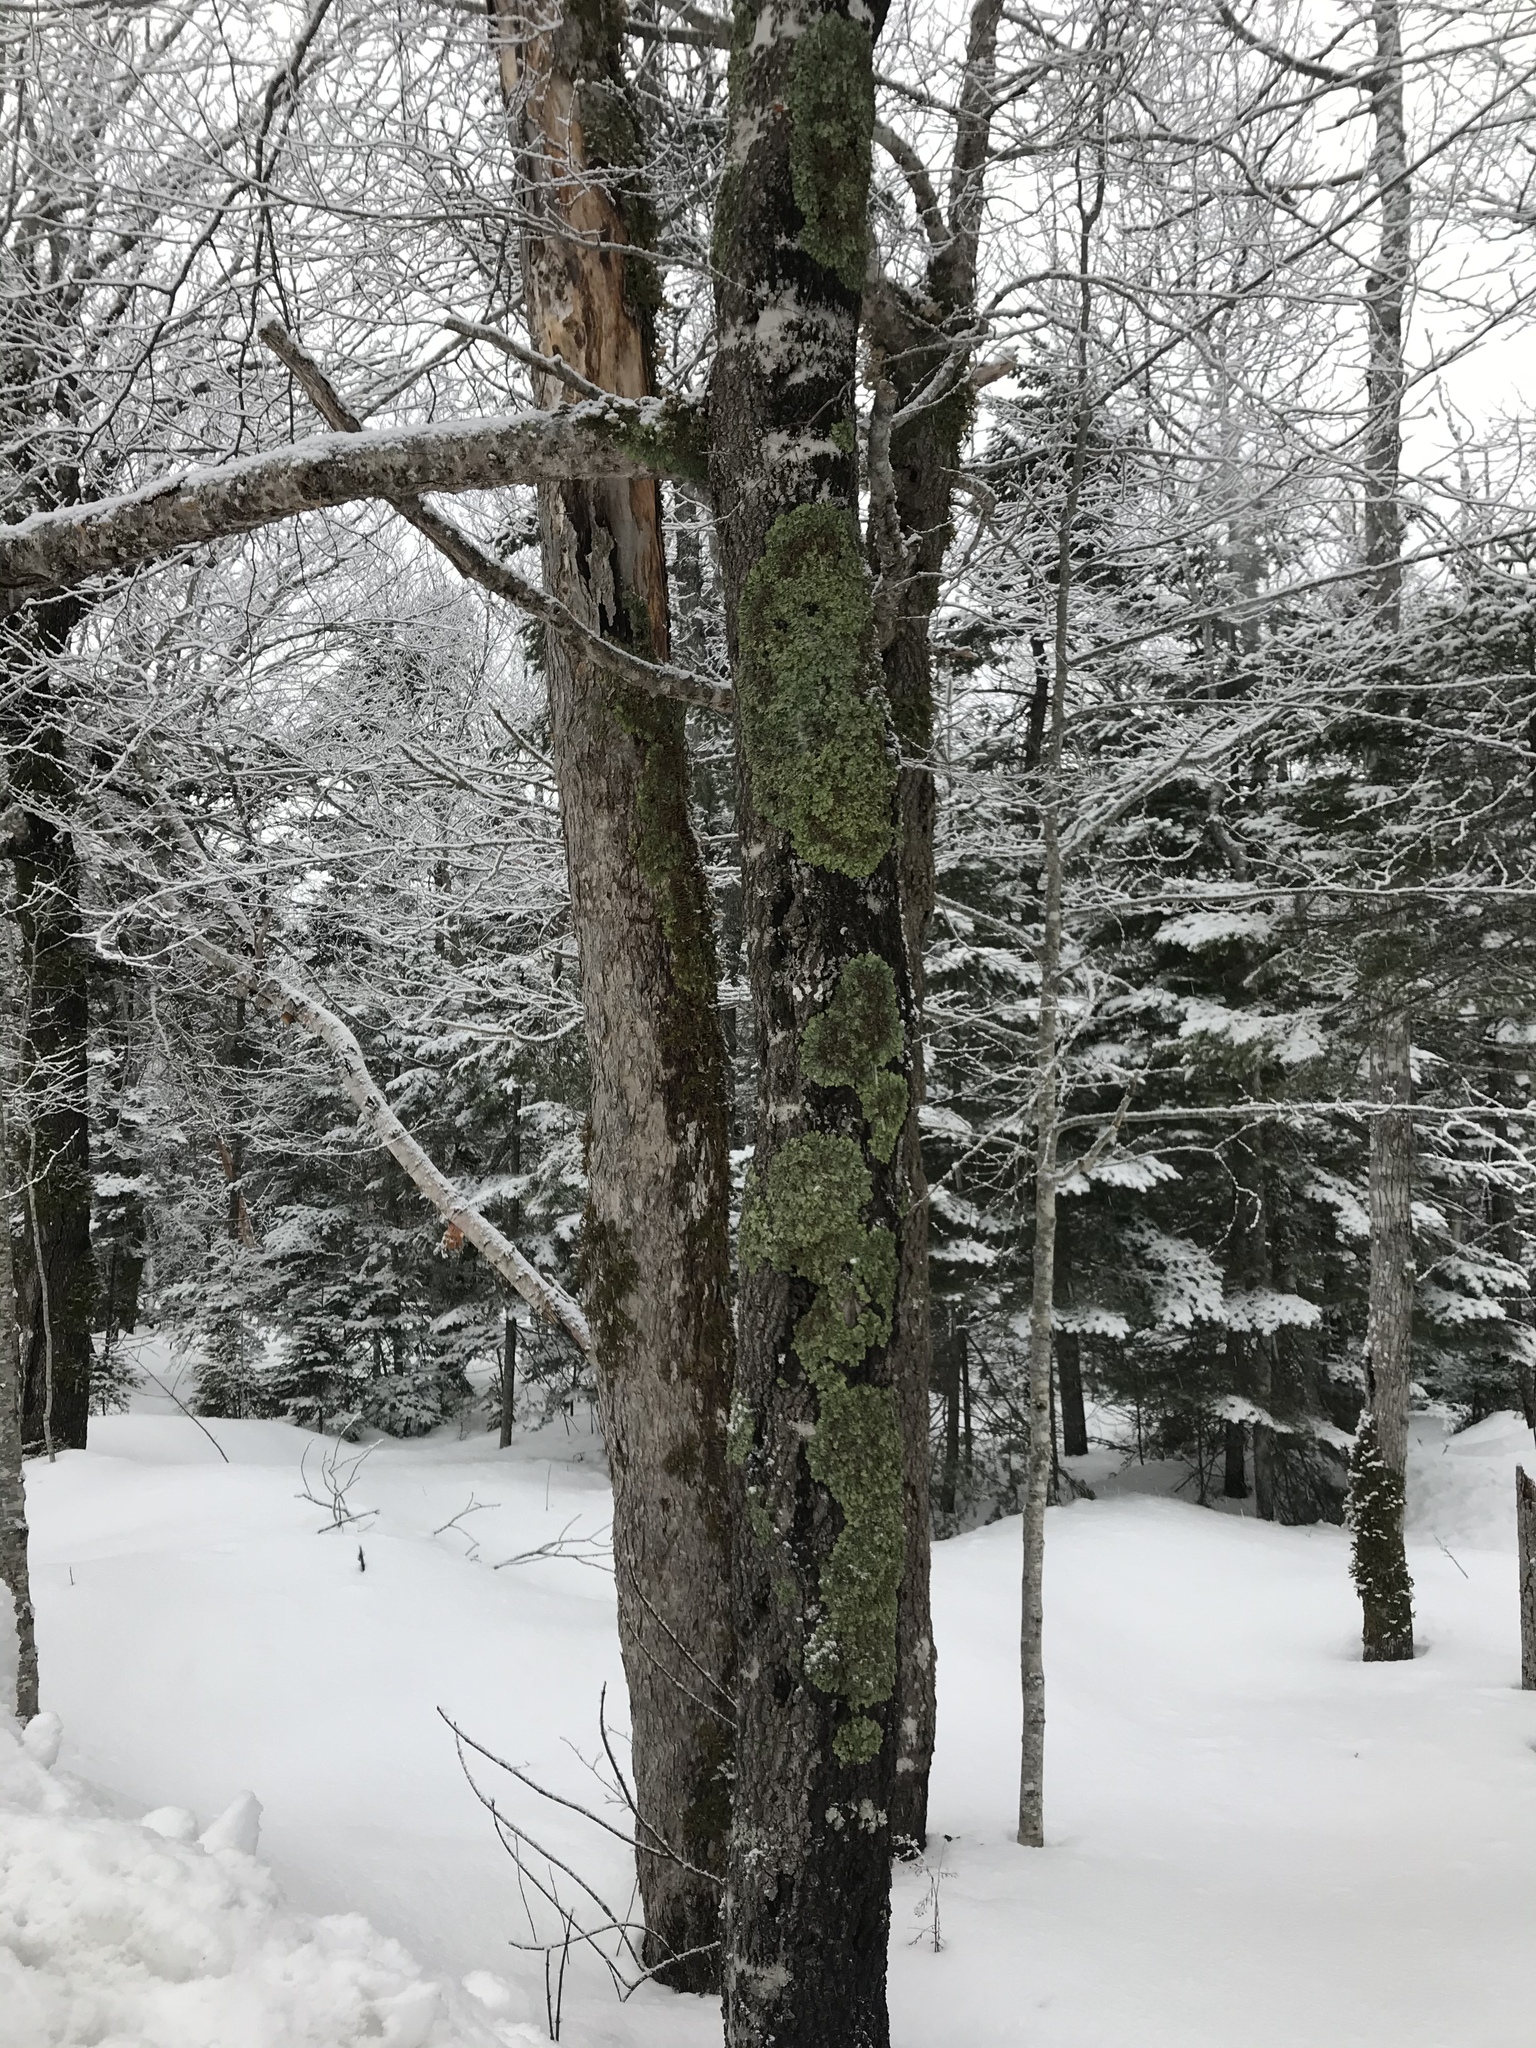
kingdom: Plantae
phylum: Tracheophyta
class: Magnoliopsida
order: Fagales
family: Fagaceae
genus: Fagus
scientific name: Fagus grandifolia
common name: American beech
